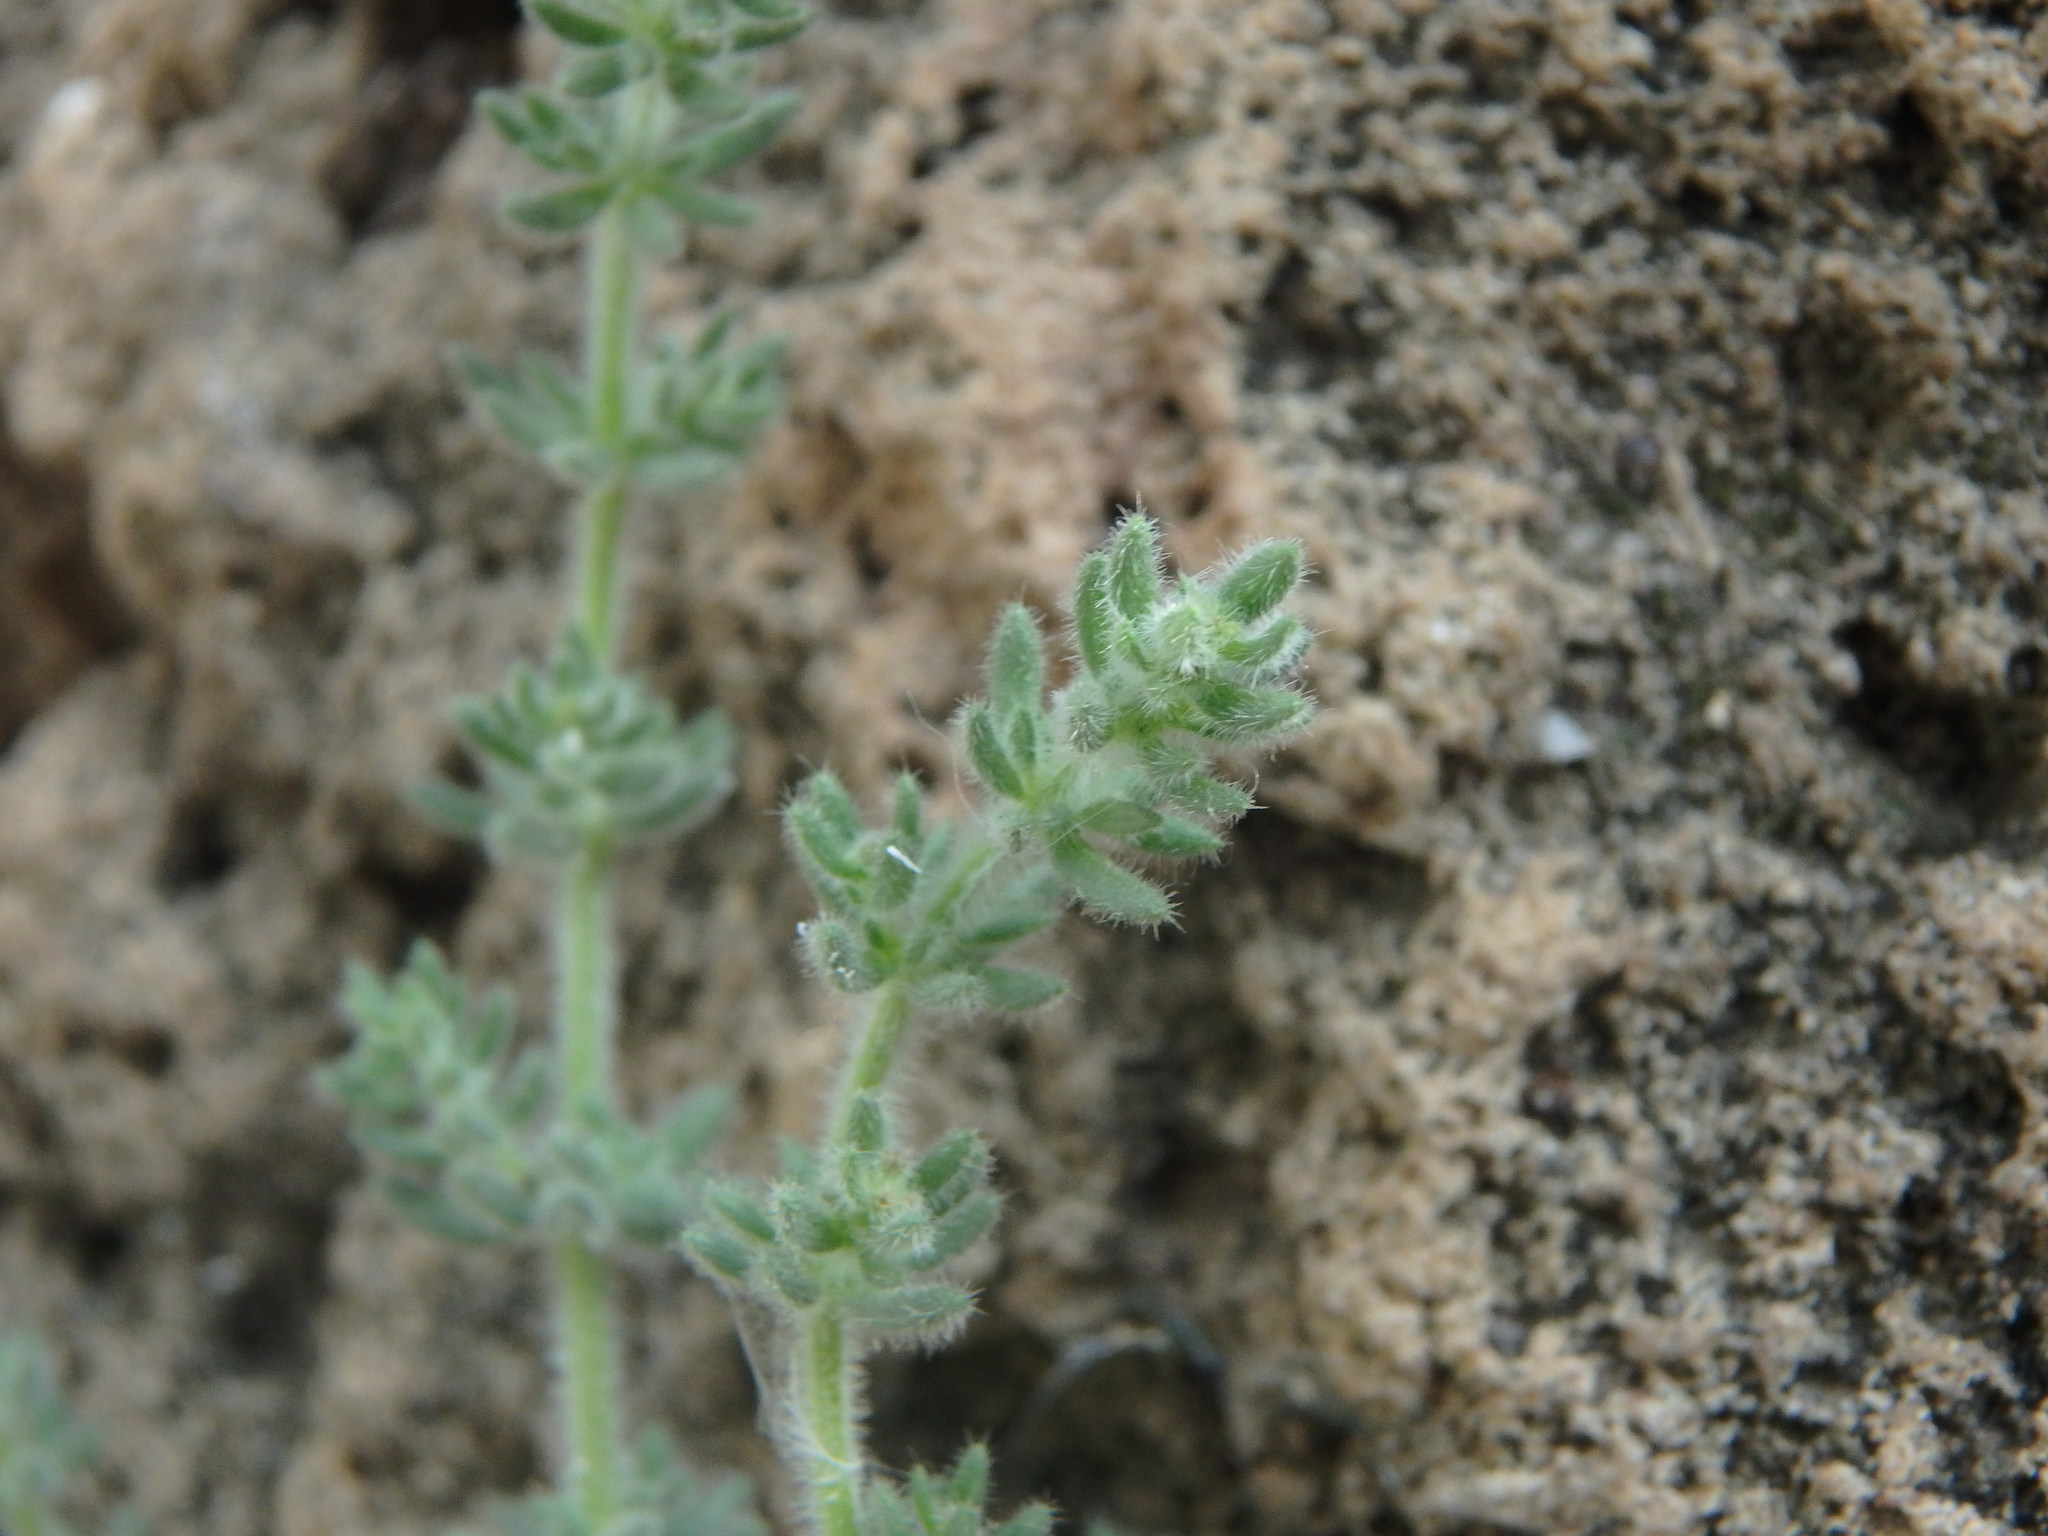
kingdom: Plantae
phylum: Tracheophyta
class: Magnoliopsida
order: Gentianales
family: Rubiaceae
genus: Galium
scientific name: Galium canum
